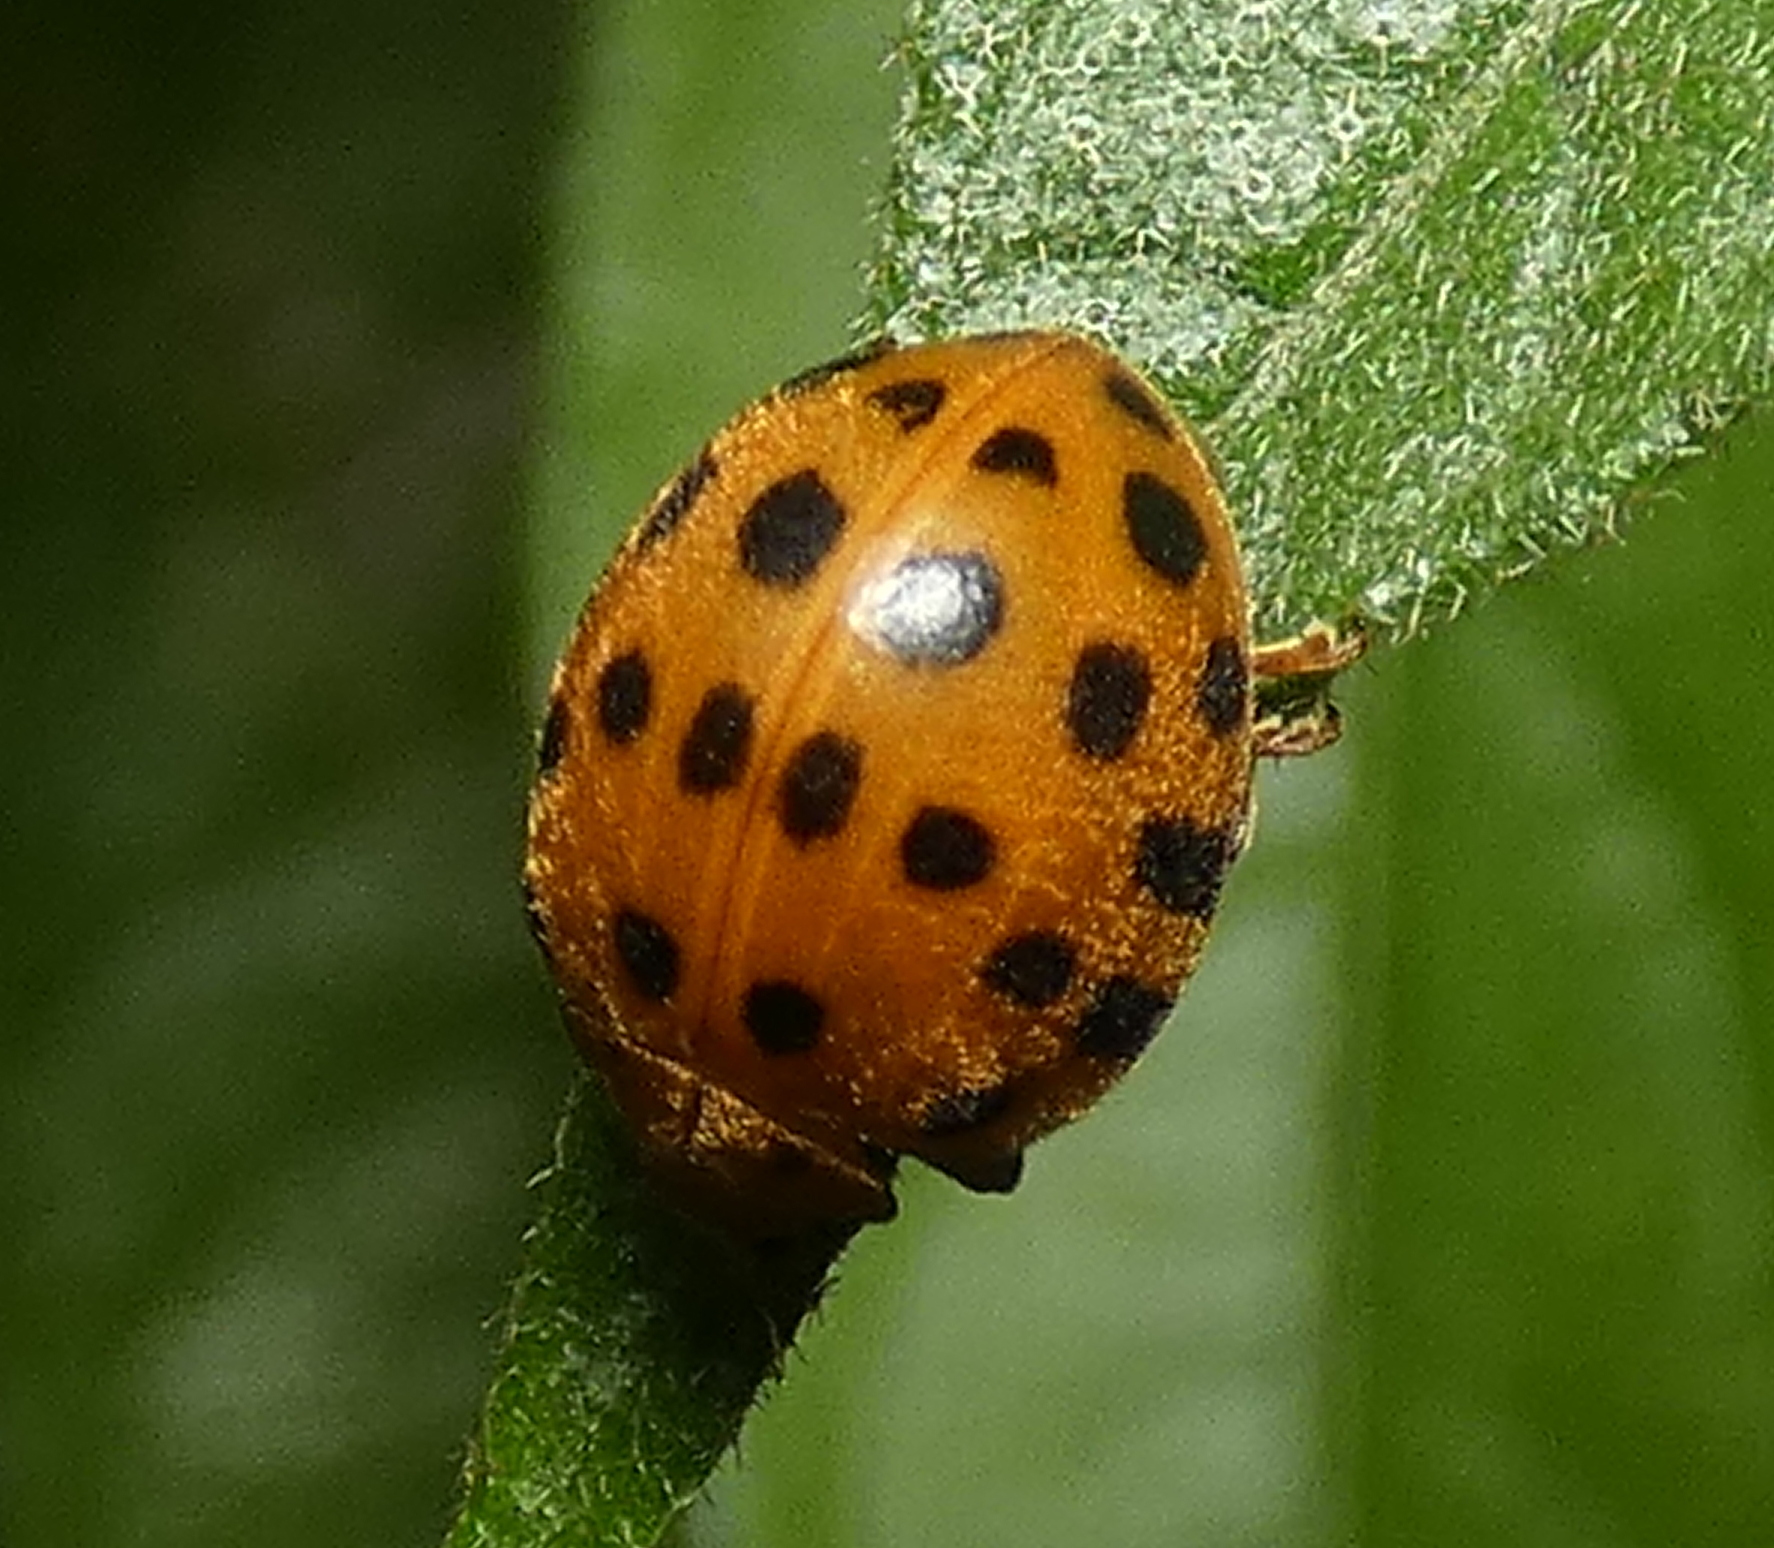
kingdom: Animalia
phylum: Arthropoda
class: Insecta
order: Coleoptera
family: Coccinellidae
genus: Henosepilachna
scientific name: Henosepilachna vigintioctopunctata
